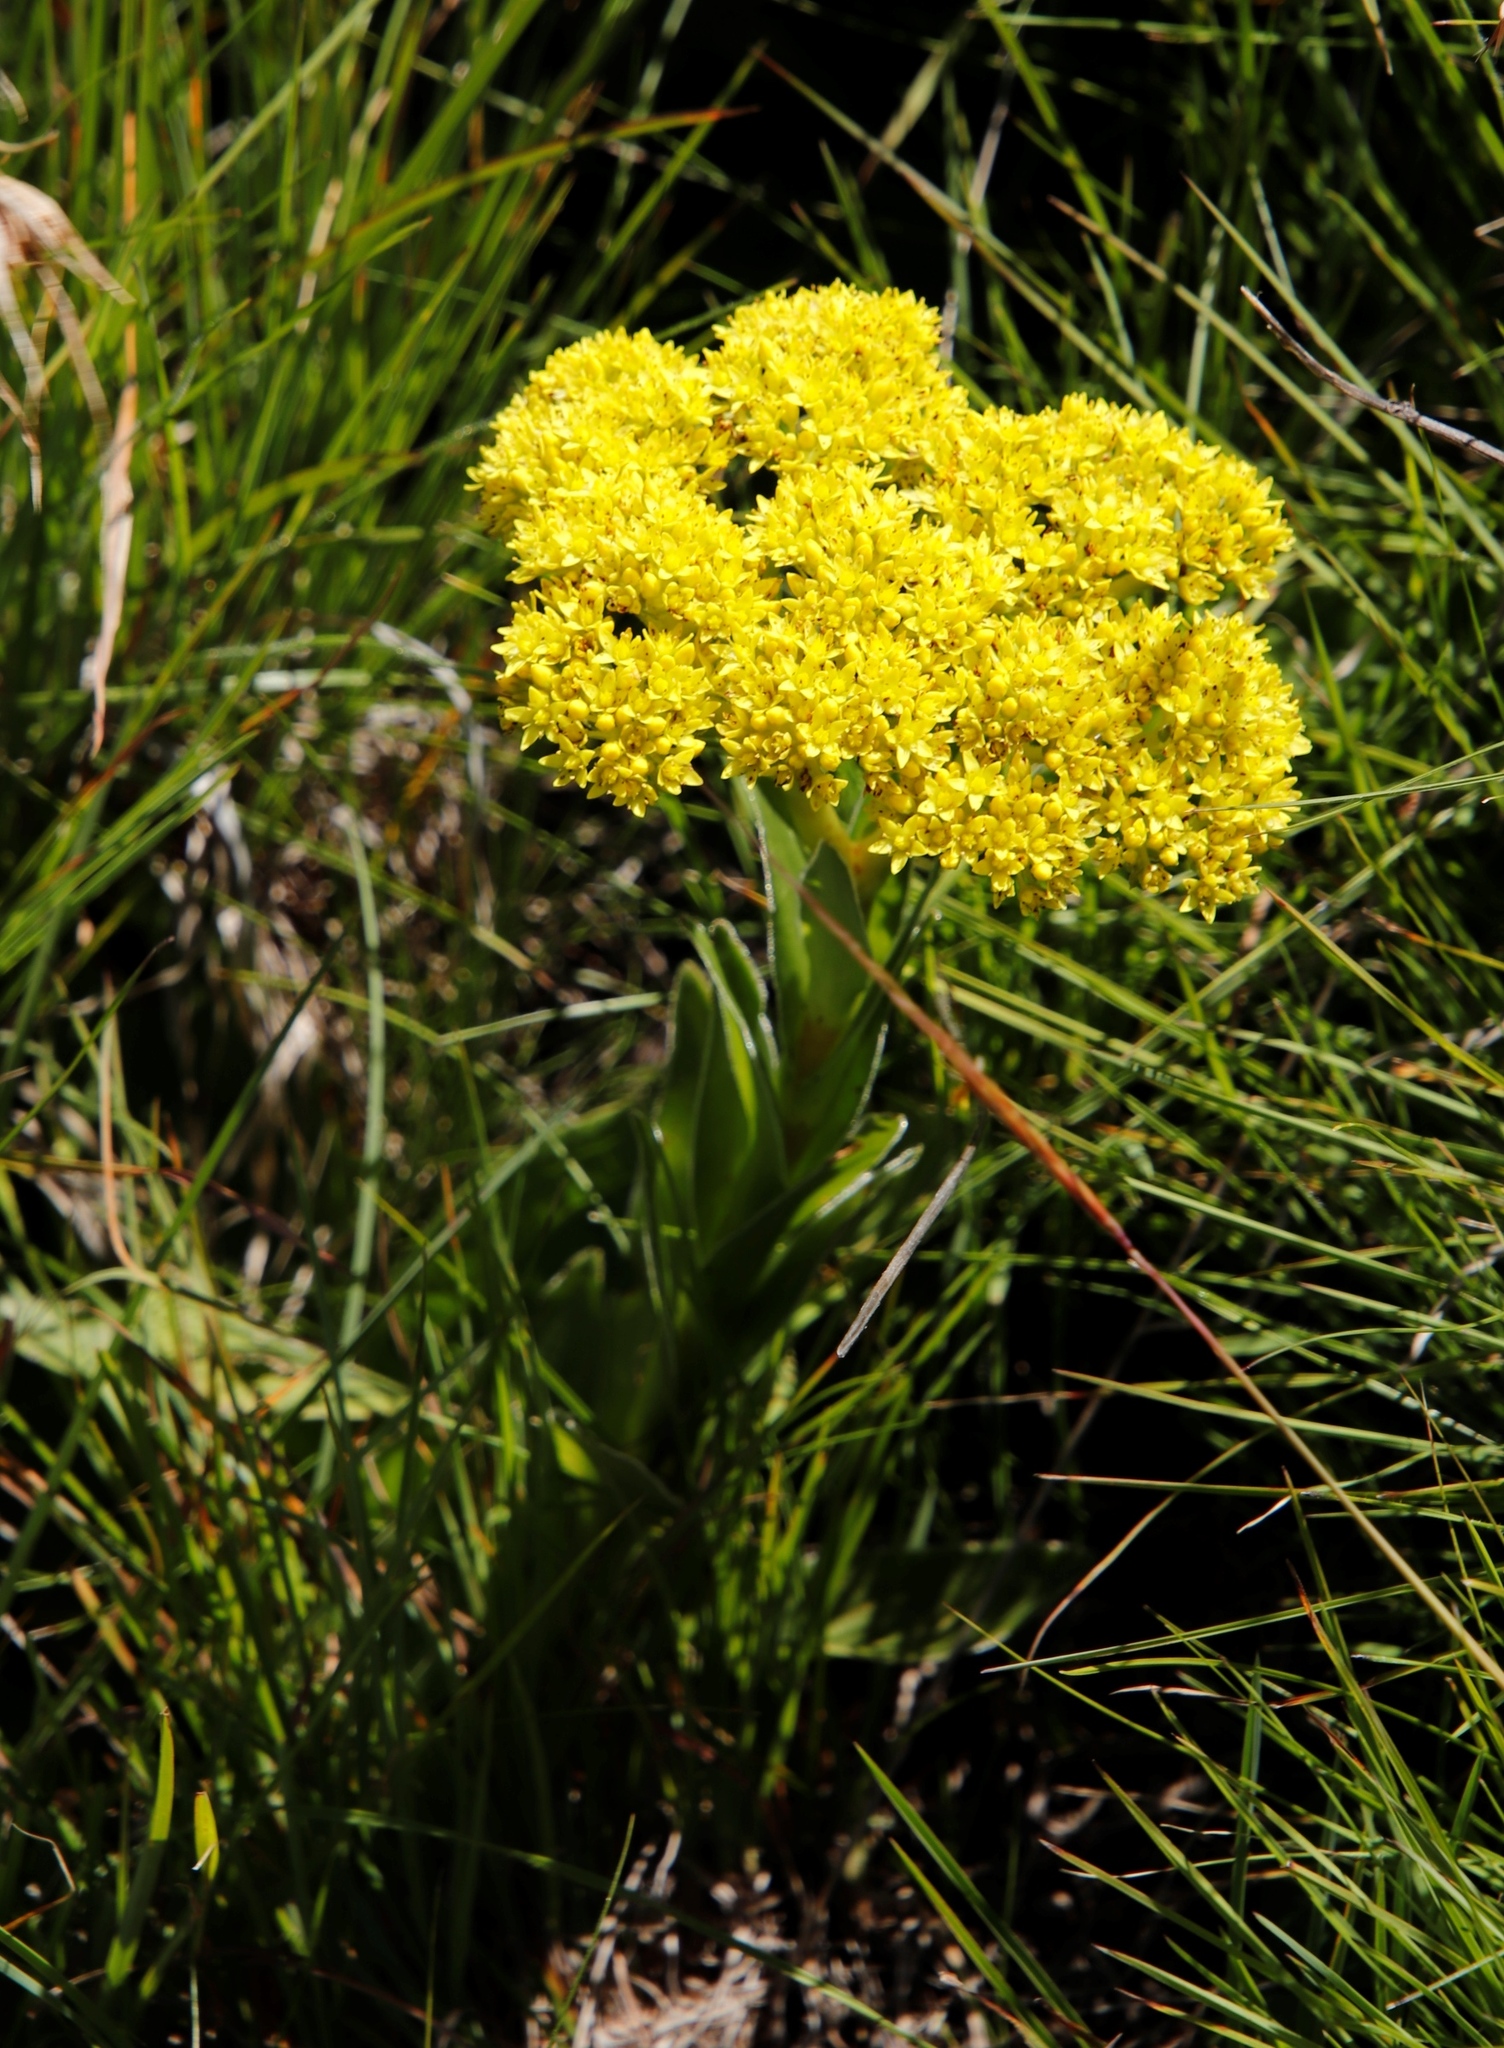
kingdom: Plantae
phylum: Tracheophyta
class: Magnoliopsida
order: Saxifragales
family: Crassulaceae
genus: Crassula
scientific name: Crassula vaginata
